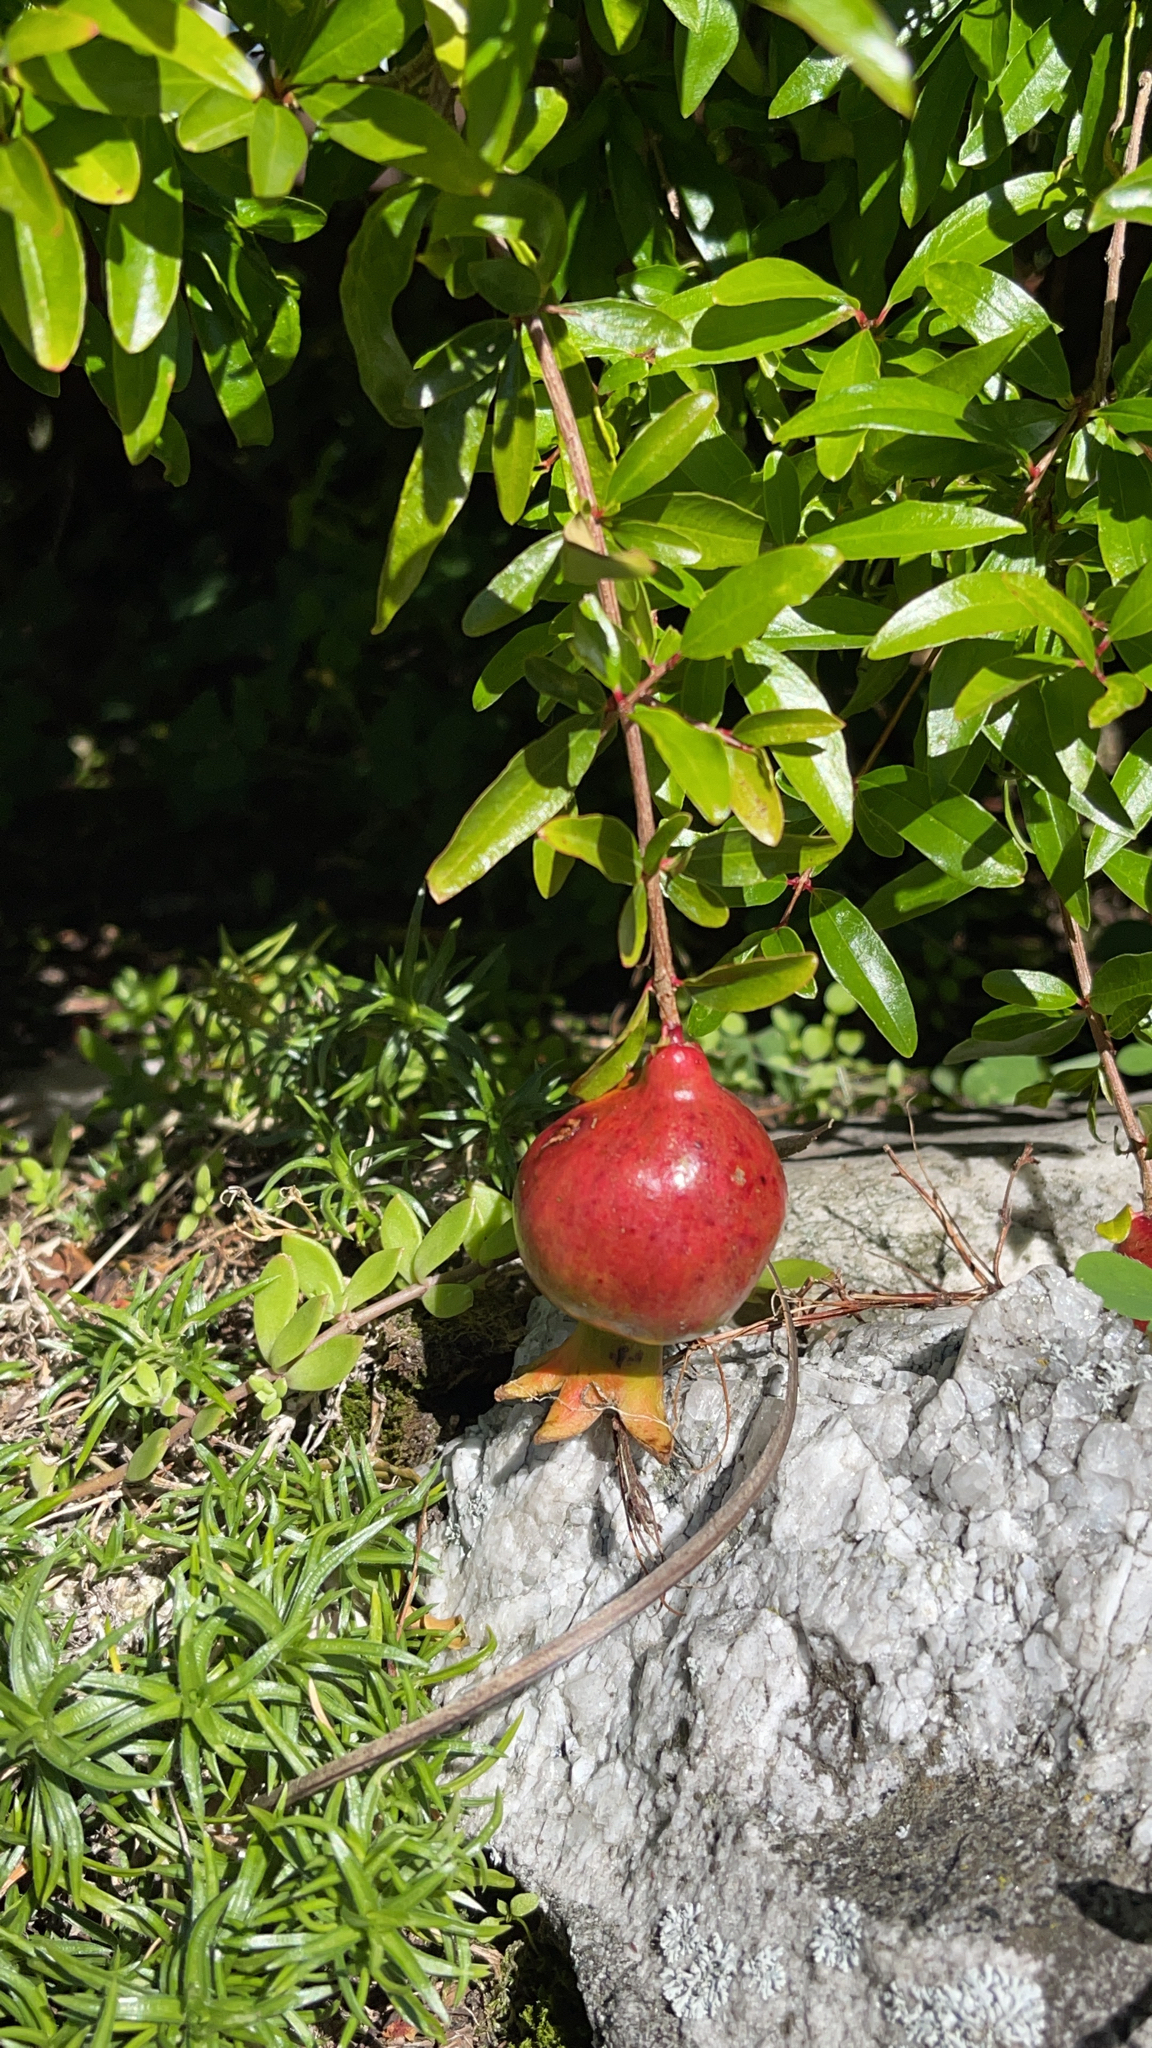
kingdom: Plantae
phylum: Tracheophyta
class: Magnoliopsida
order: Myrtales
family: Lythraceae
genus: Punica
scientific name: Punica granatum
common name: Pomegranate
